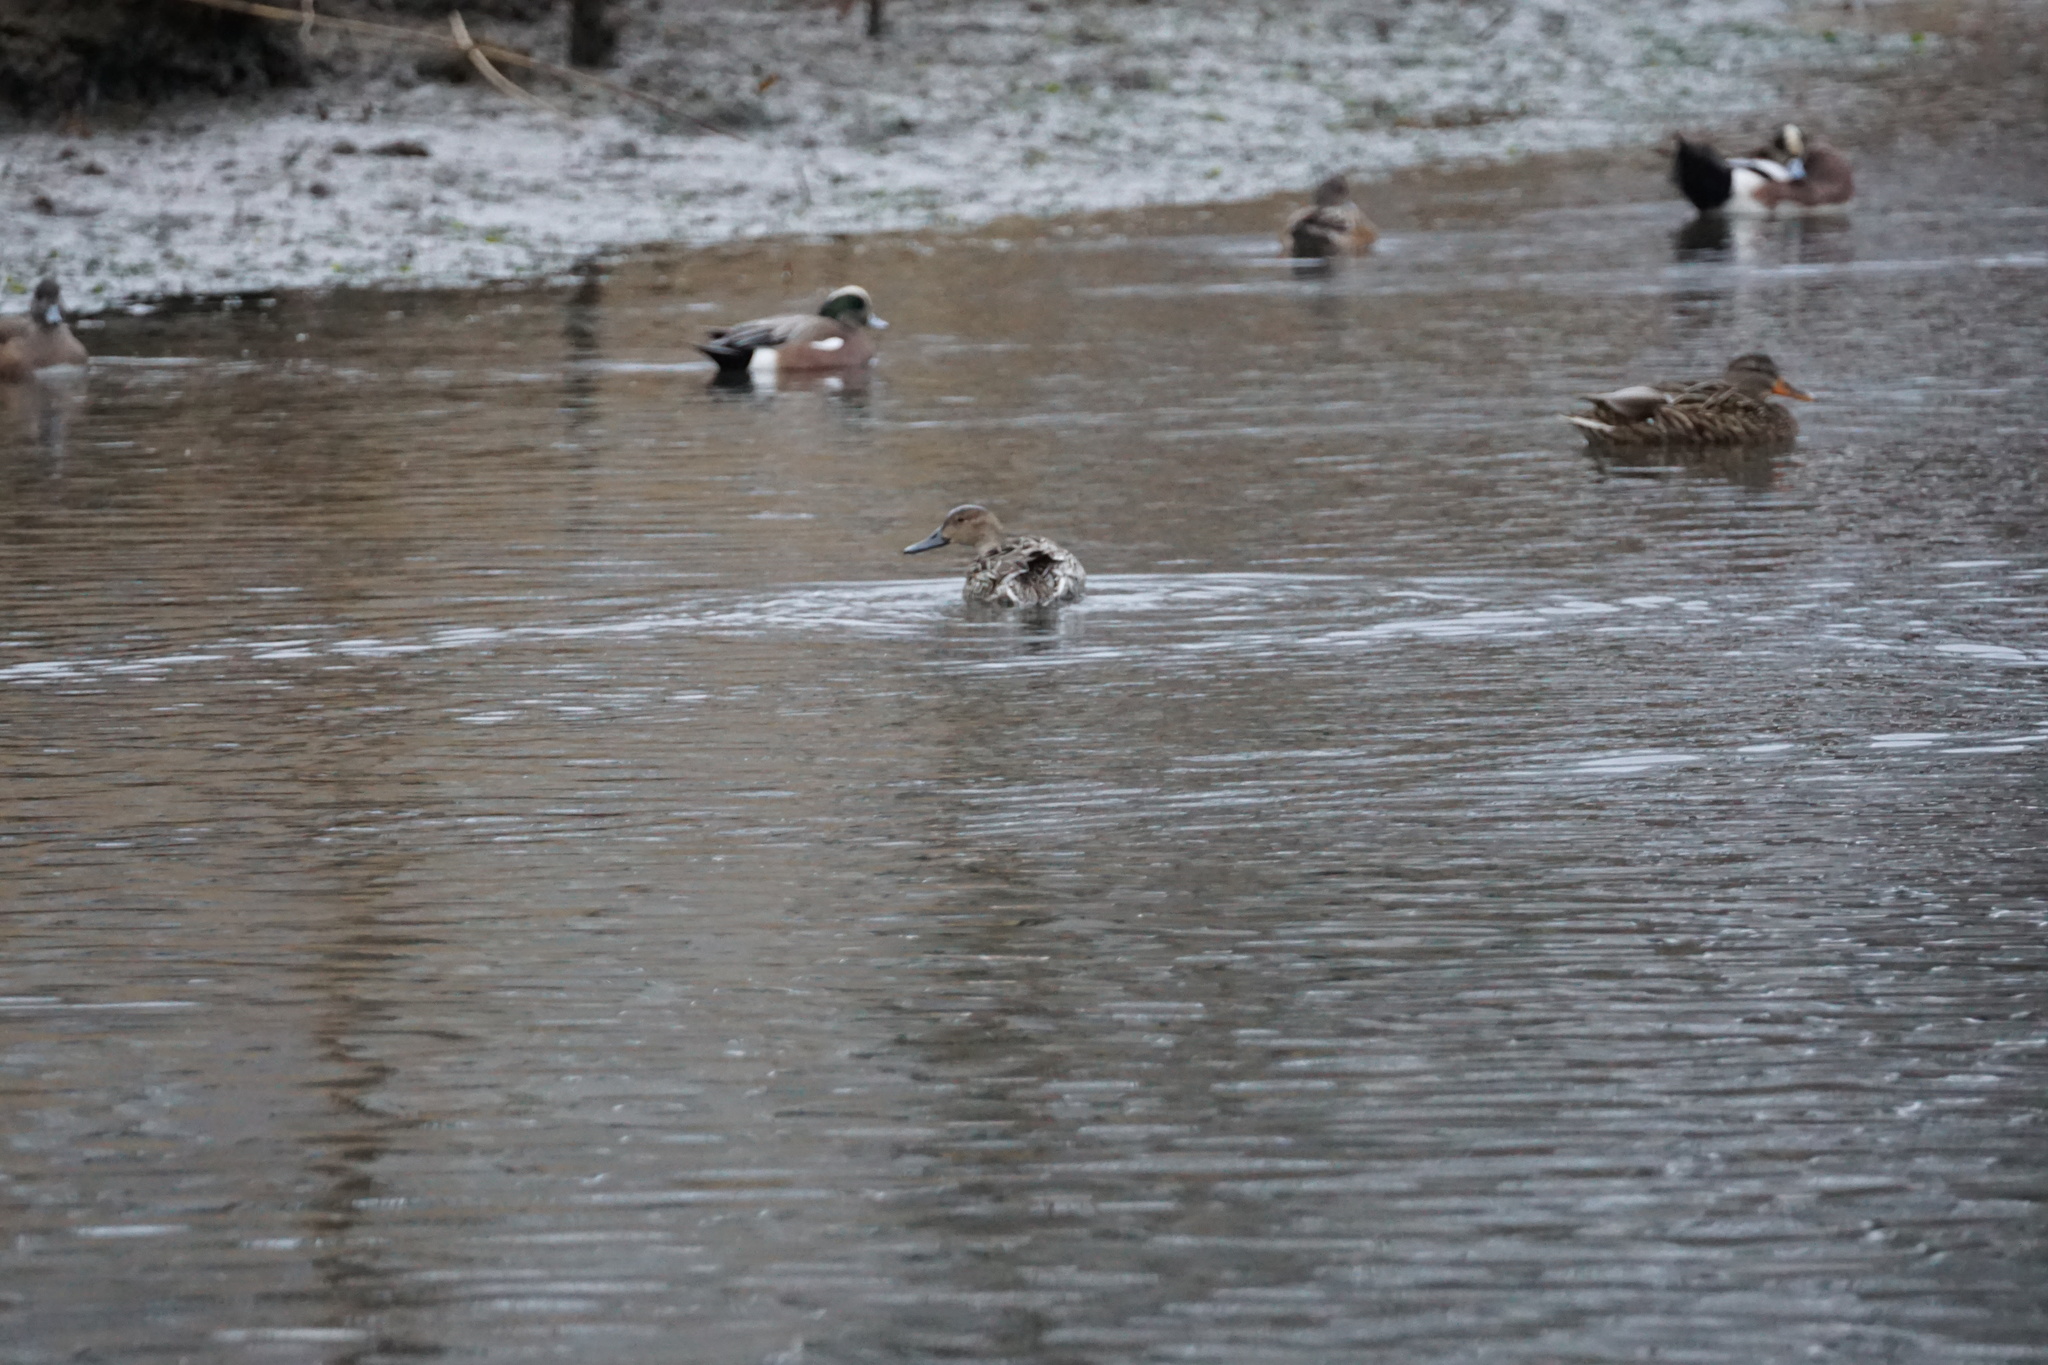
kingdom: Animalia
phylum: Chordata
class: Aves
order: Anseriformes
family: Anatidae
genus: Anas
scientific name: Anas acuta
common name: Northern pintail
